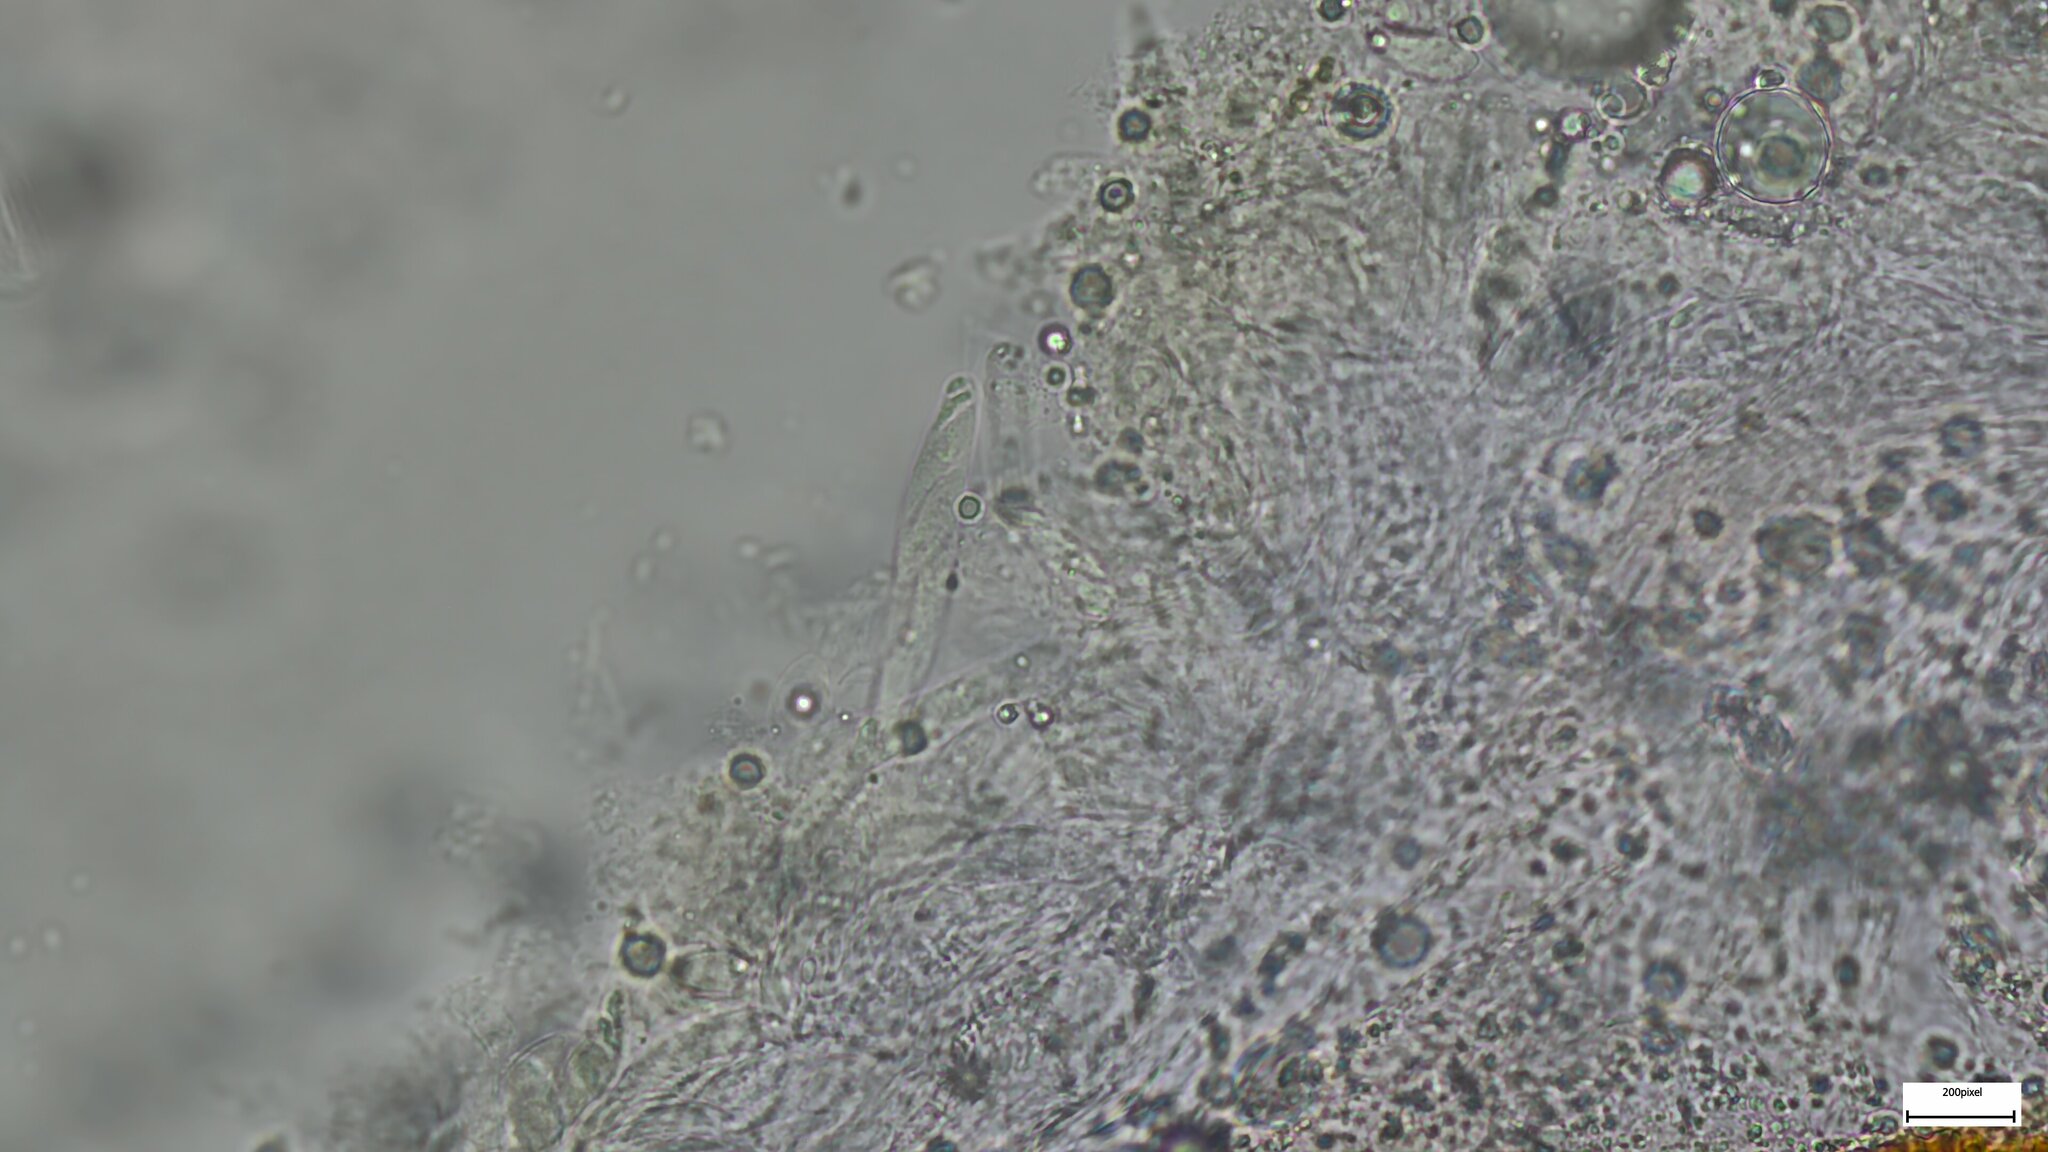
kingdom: Fungi
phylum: Ascomycota
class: Sordariomycetes
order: Hypocreales
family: Nectriaceae
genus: Nectria
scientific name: Nectria pseudotrichia
